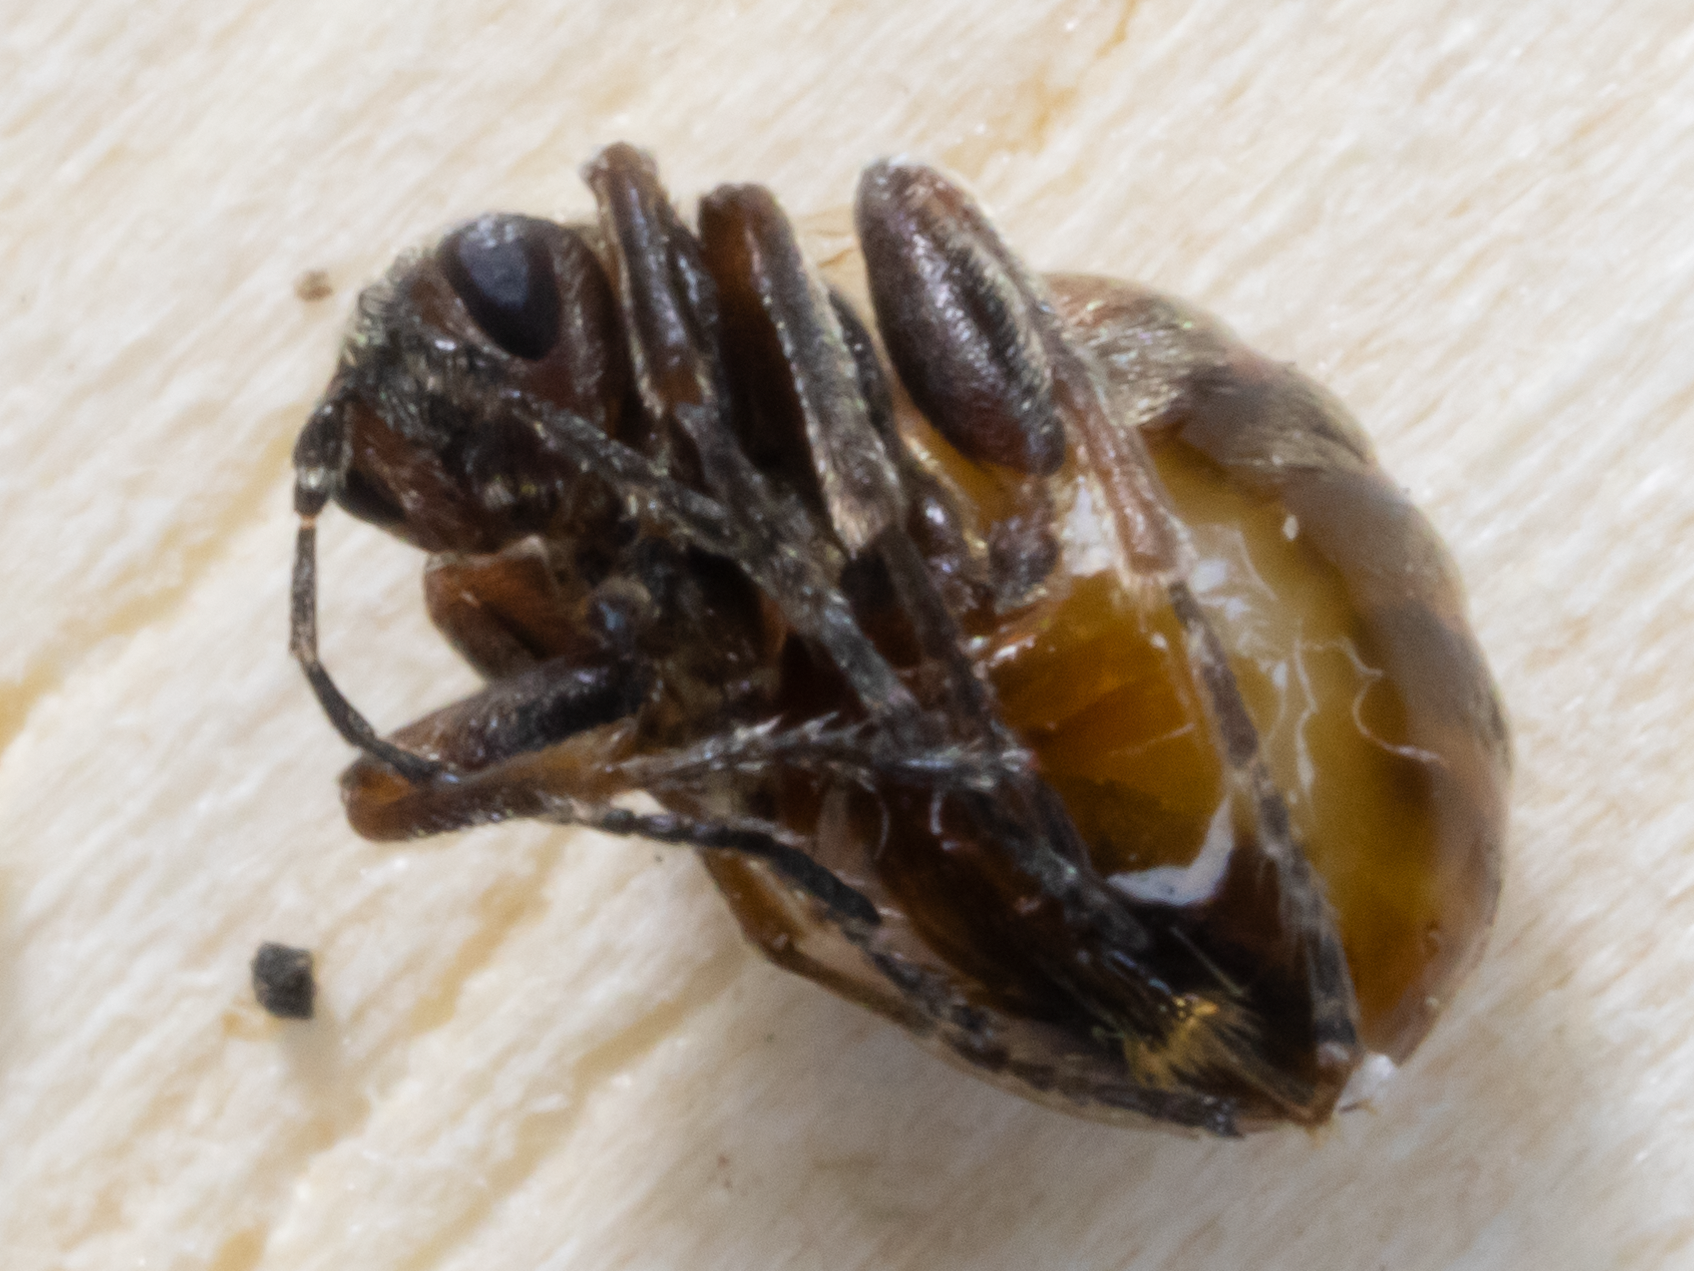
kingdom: Animalia
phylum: Arthropoda
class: Insecta
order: Hymenoptera
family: Cynipidae
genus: Acraspis
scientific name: Acraspis villosa
